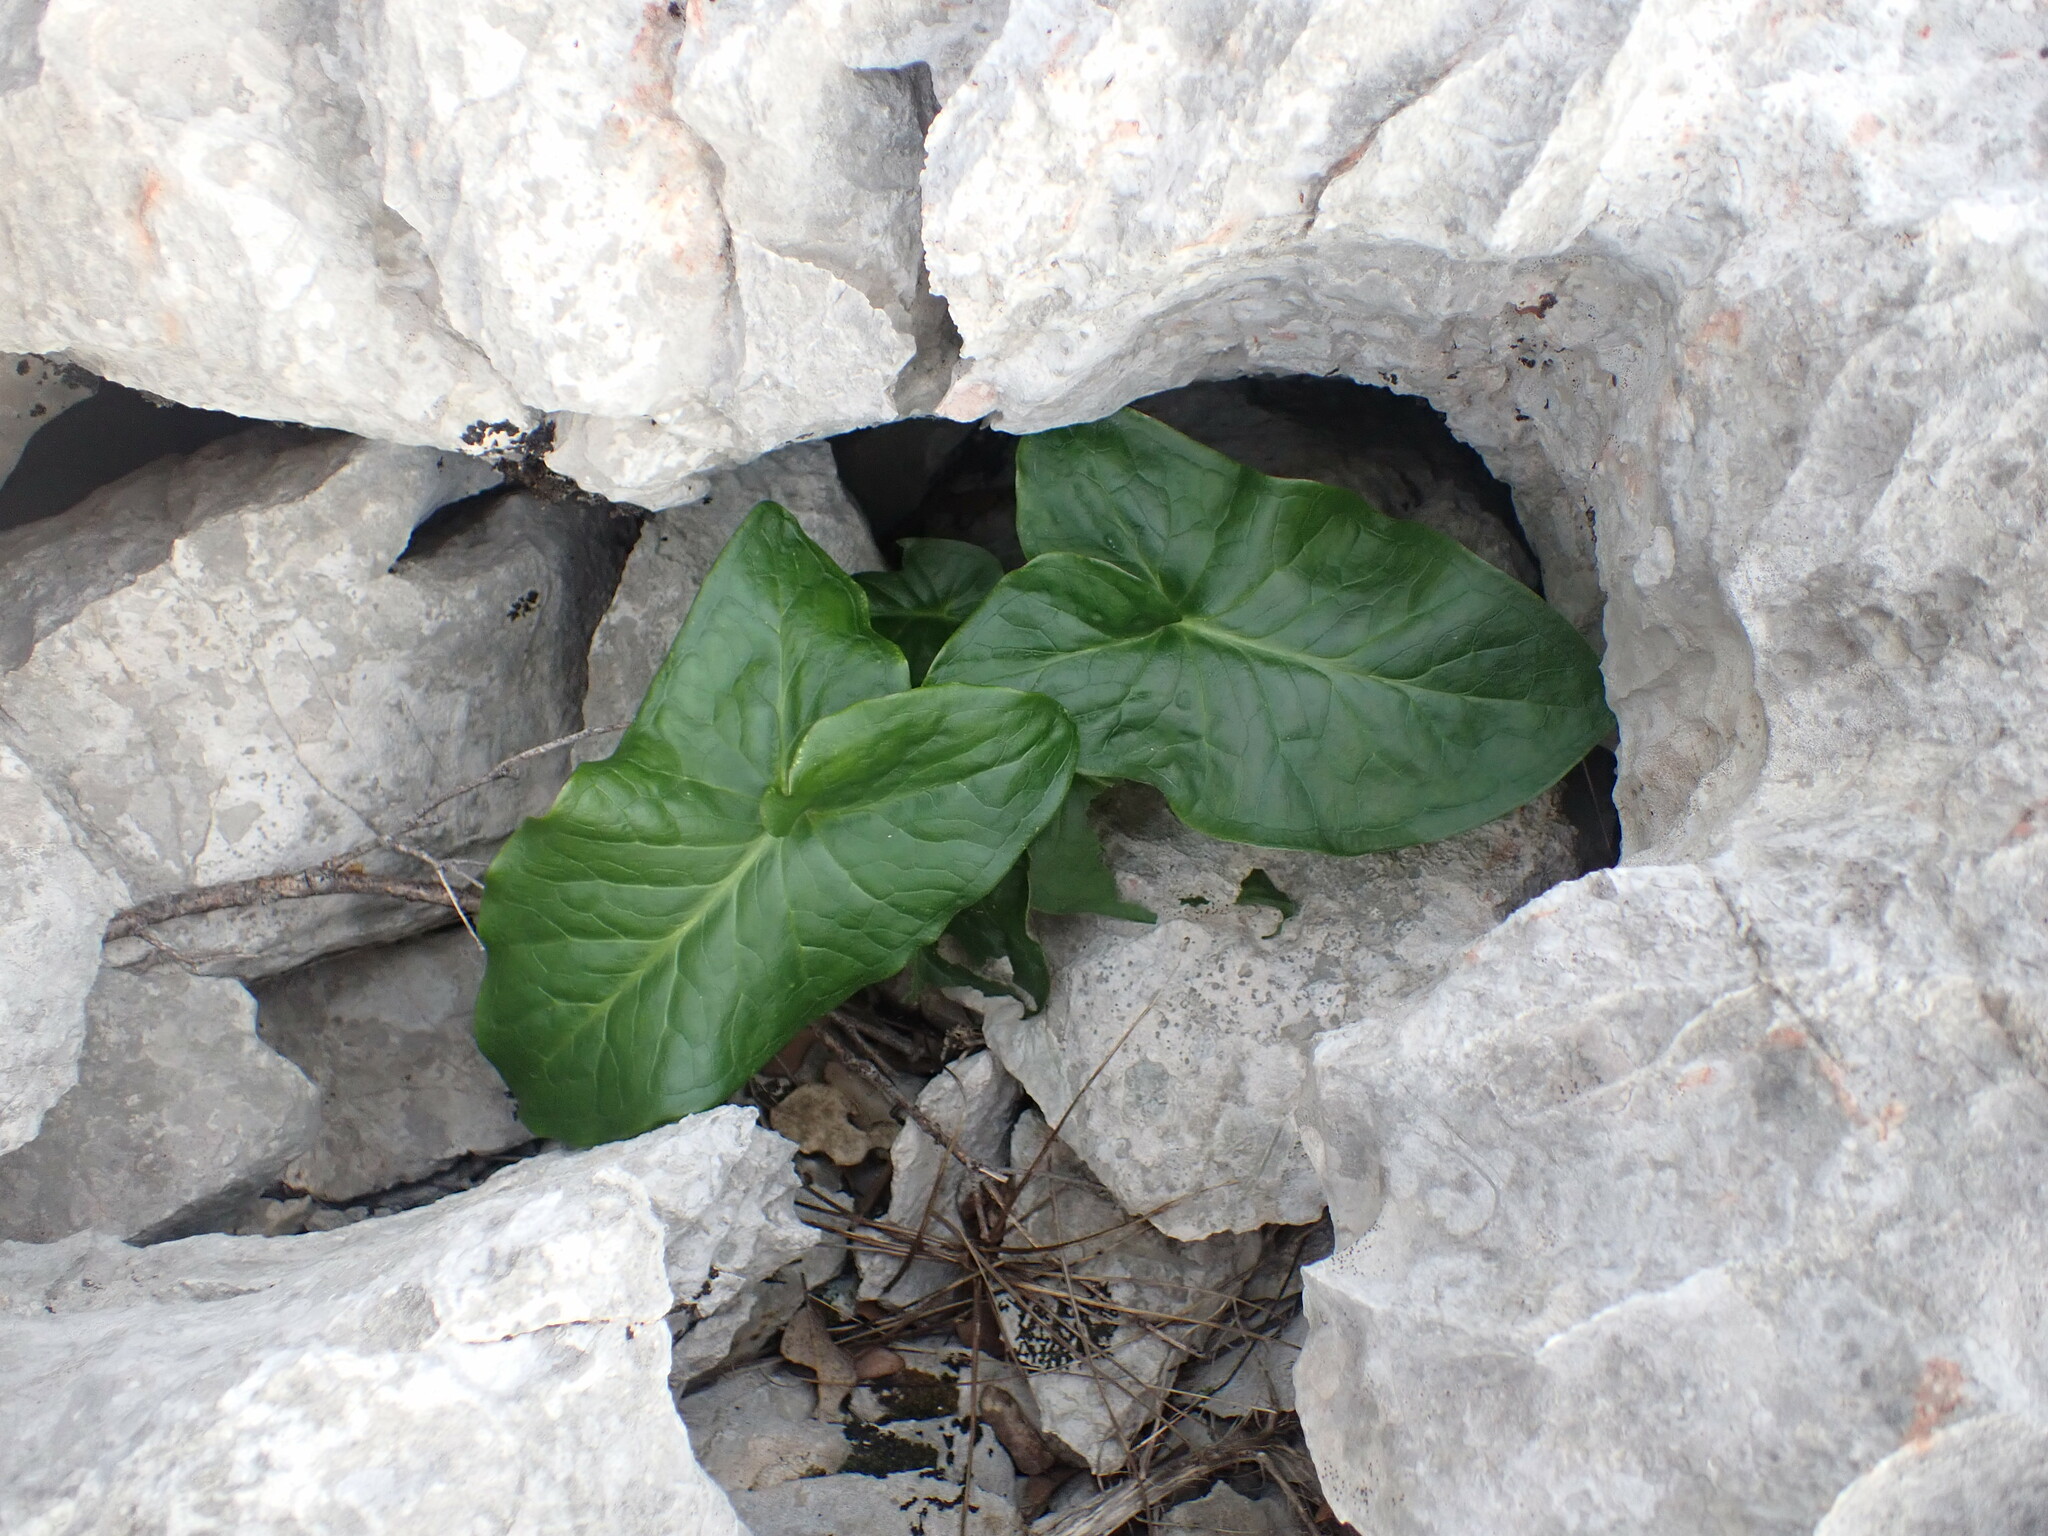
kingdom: Plantae
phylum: Tracheophyta
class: Liliopsida
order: Alismatales
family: Araceae
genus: Arum
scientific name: Arum italicum
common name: Italian lords-and-ladies
